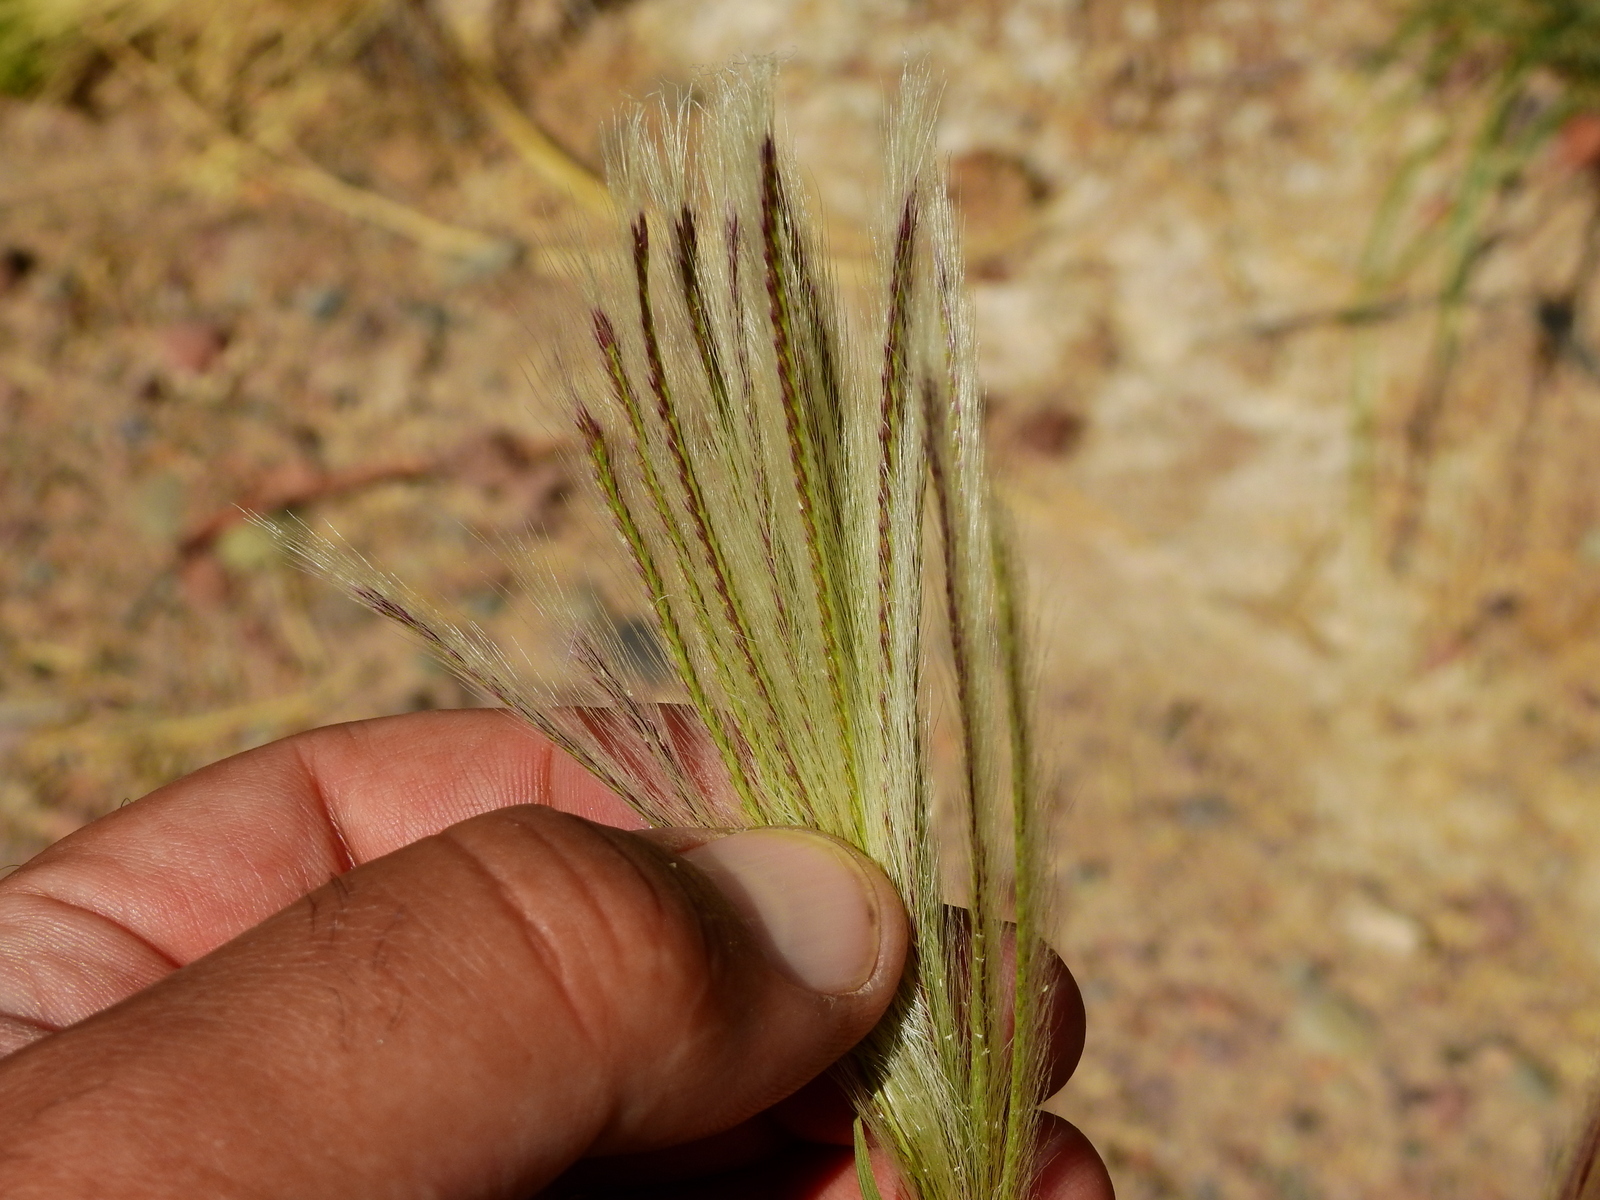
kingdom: Plantae
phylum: Tracheophyta
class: Liliopsida
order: Poales
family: Poaceae
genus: Leptochloa
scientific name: Leptochloa crinita
